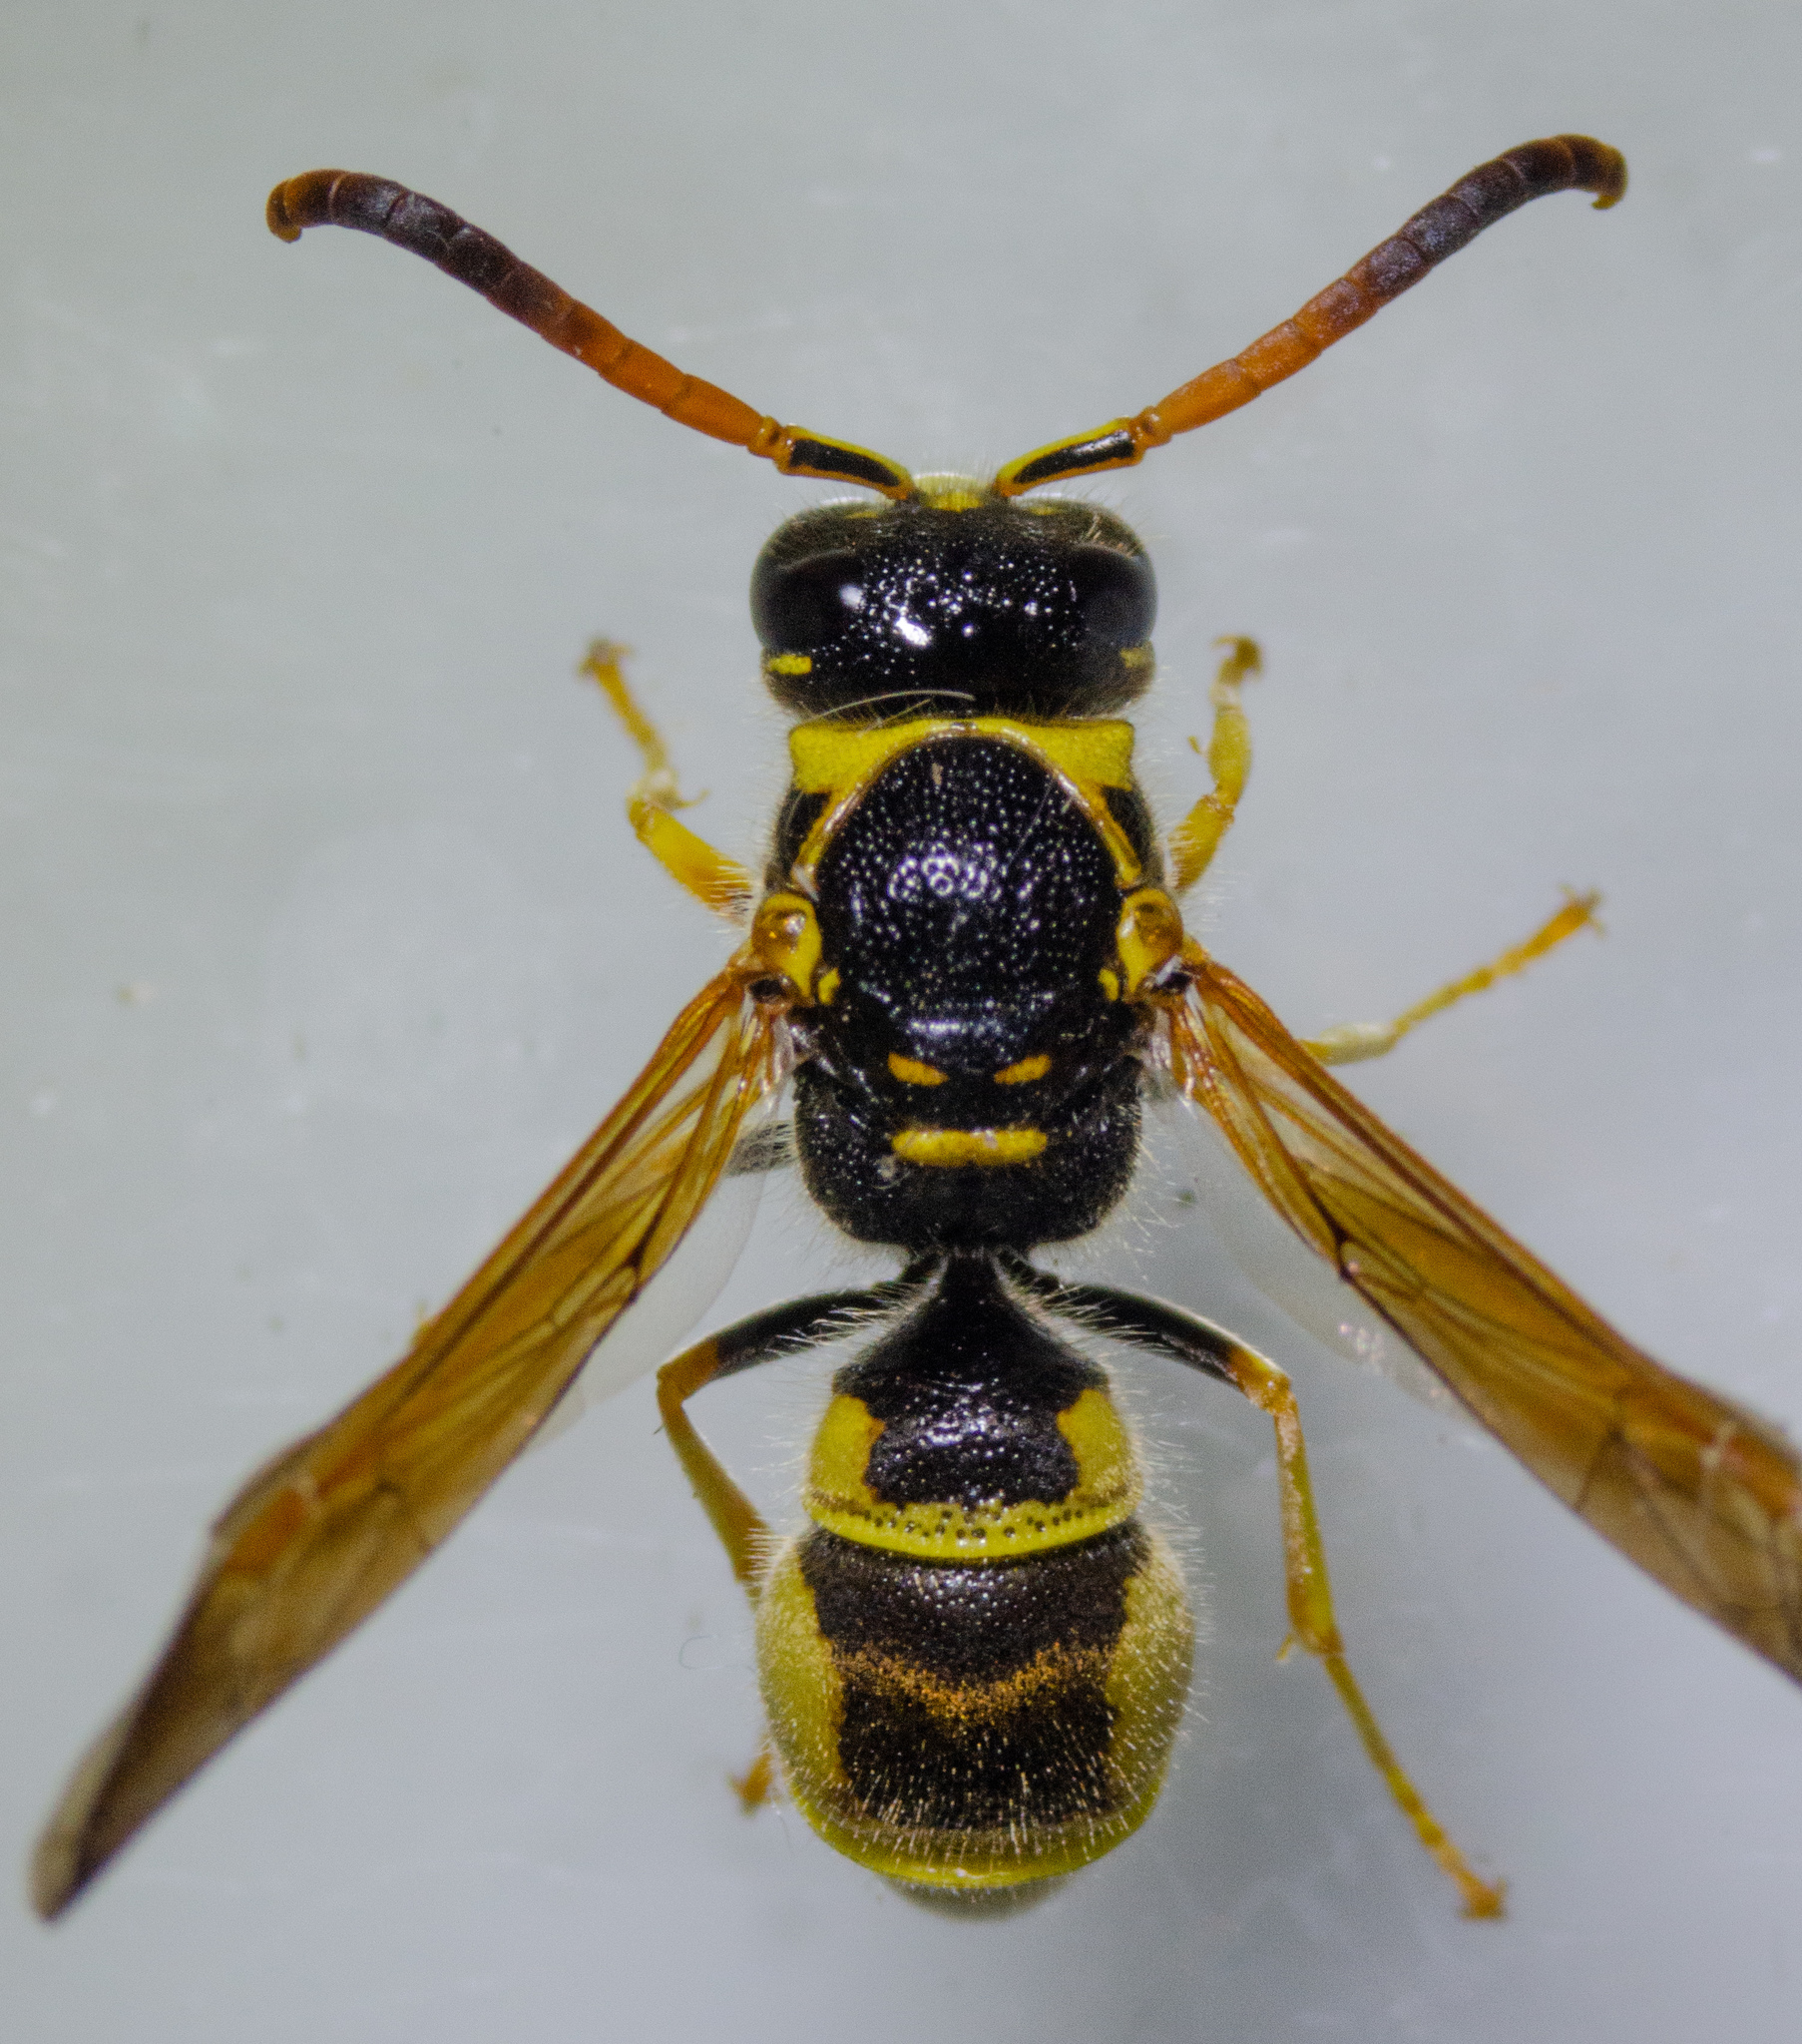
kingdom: Animalia
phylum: Arthropoda
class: Insecta
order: Hymenoptera
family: Vespidae
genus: Ancistrocerus
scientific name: Ancistrocerus tuberculocephalus
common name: Vespid wasp
